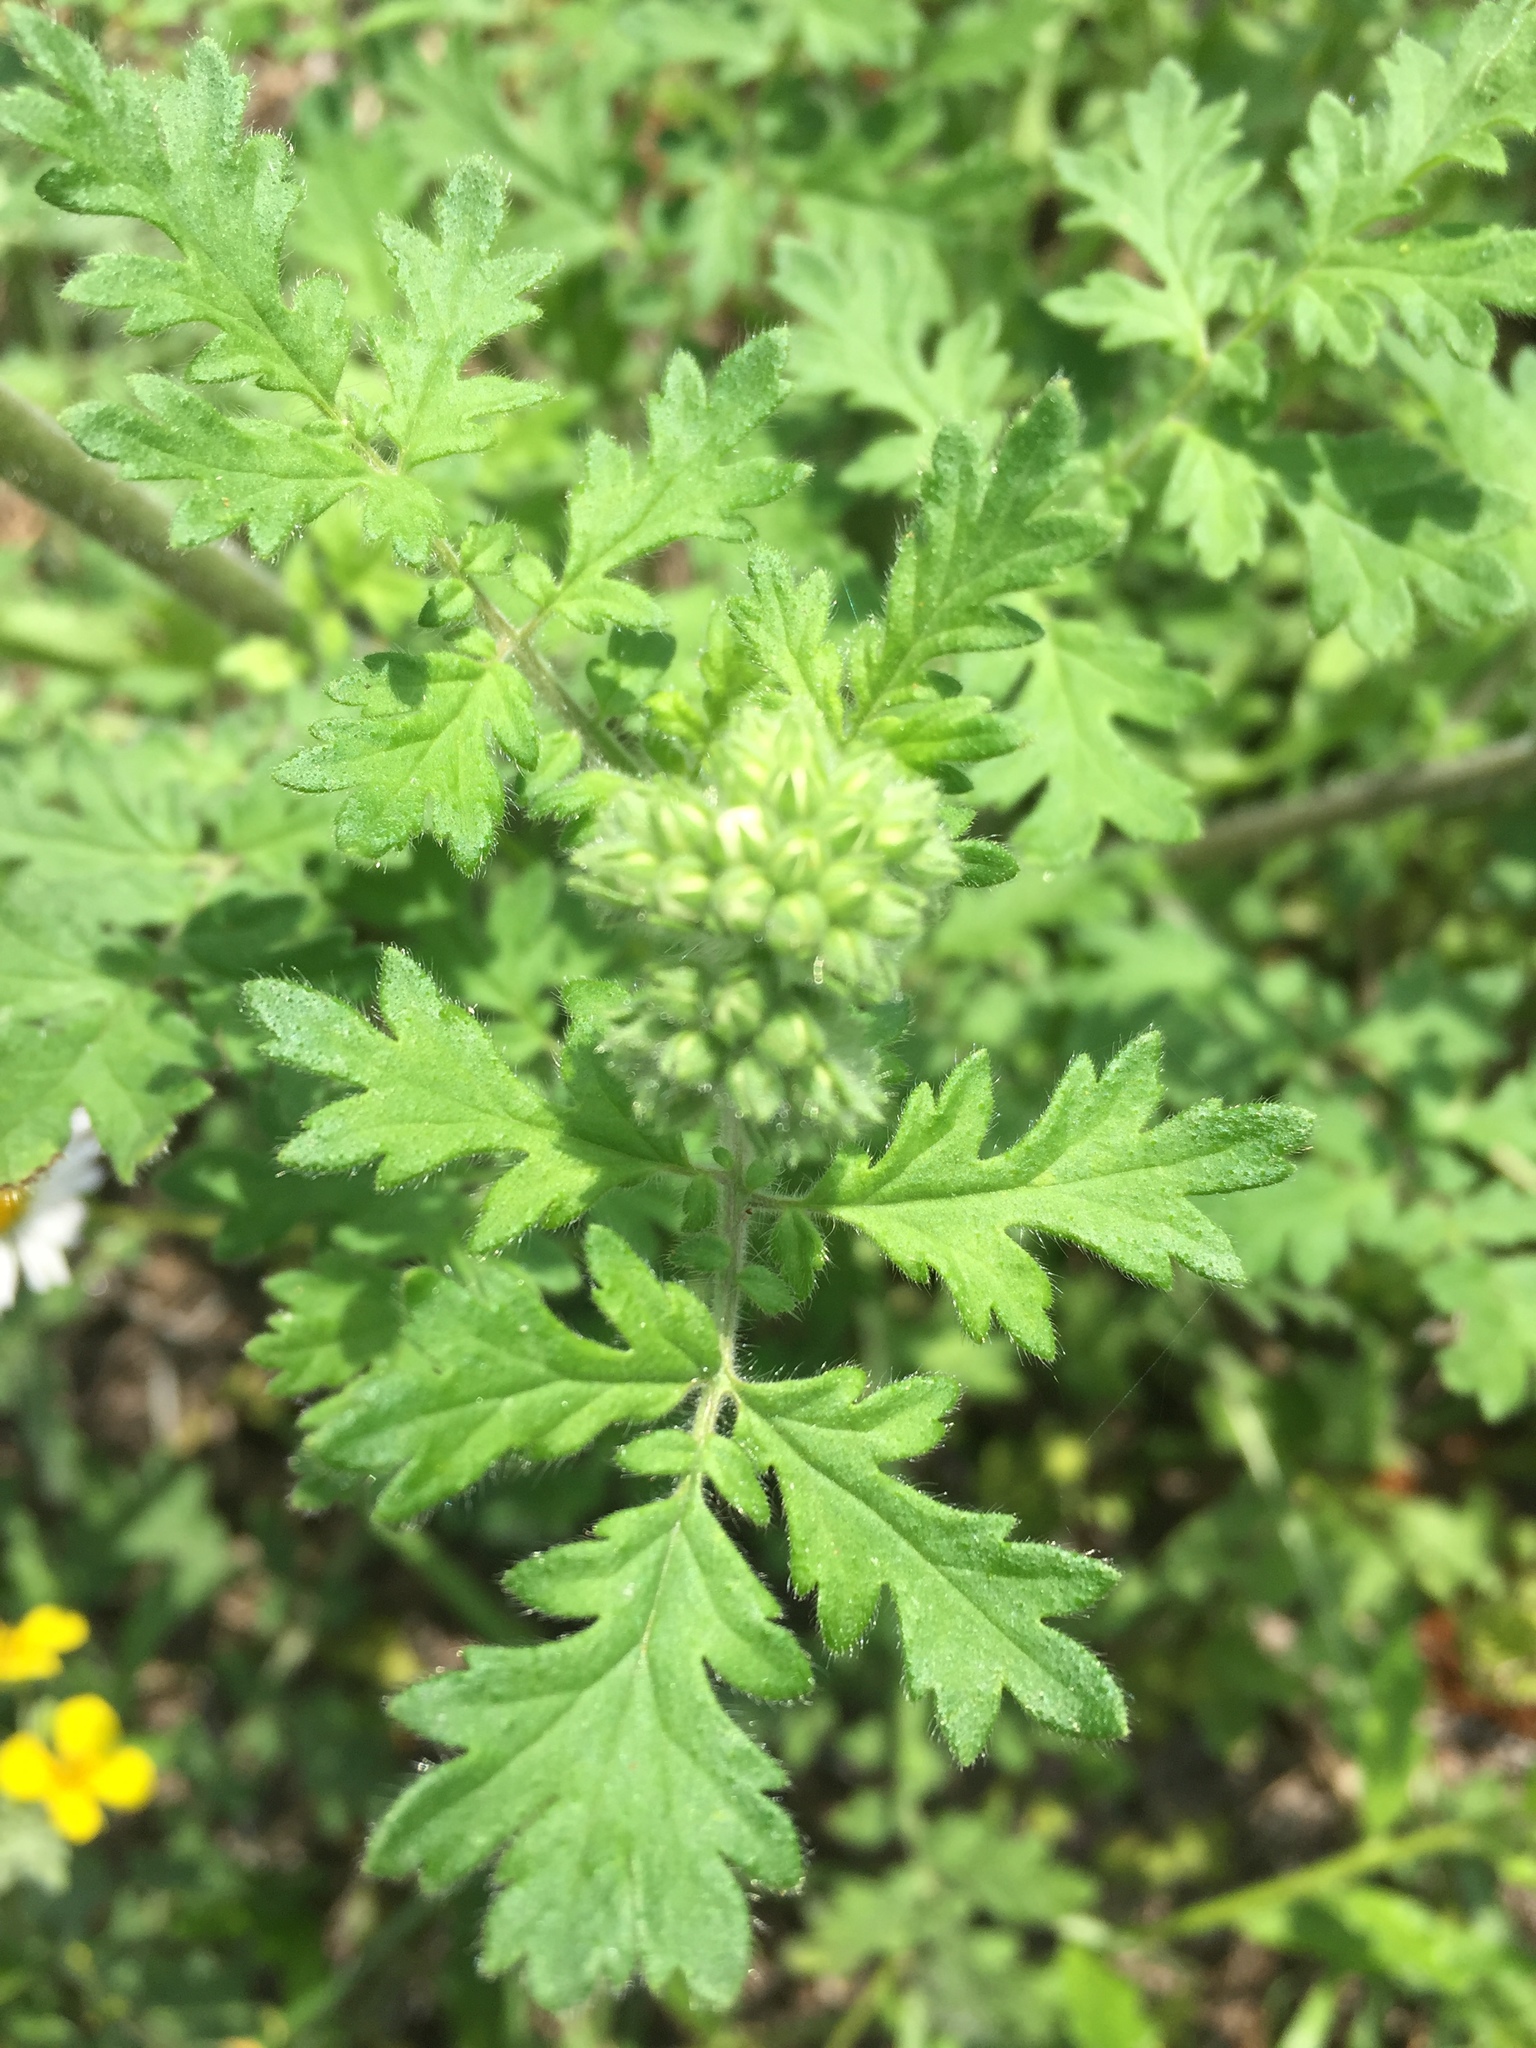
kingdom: Plantae
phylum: Tracheophyta
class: Magnoliopsida
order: Boraginales
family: Hydrophyllaceae
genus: Phacelia
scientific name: Phacelia congesta
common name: Blue curls
